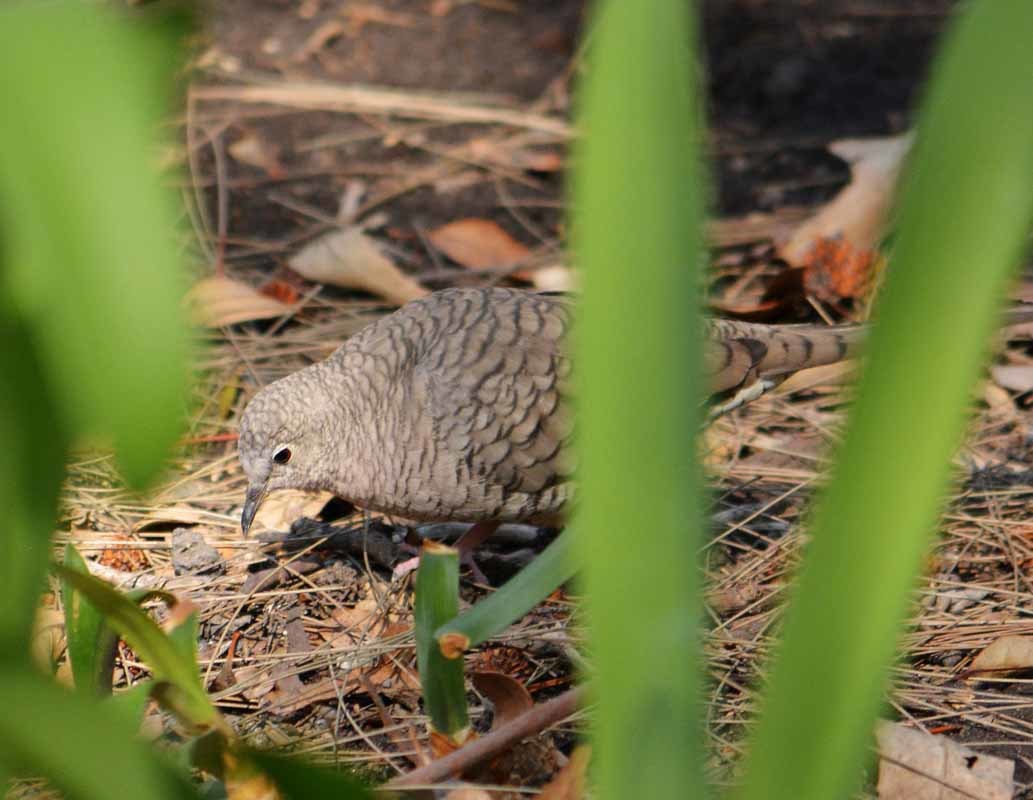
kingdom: Animalia
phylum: Chordata
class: Aves
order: Columbiformes
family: Columbidae
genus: Columbina
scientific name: Columbina inca
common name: Inca dove
